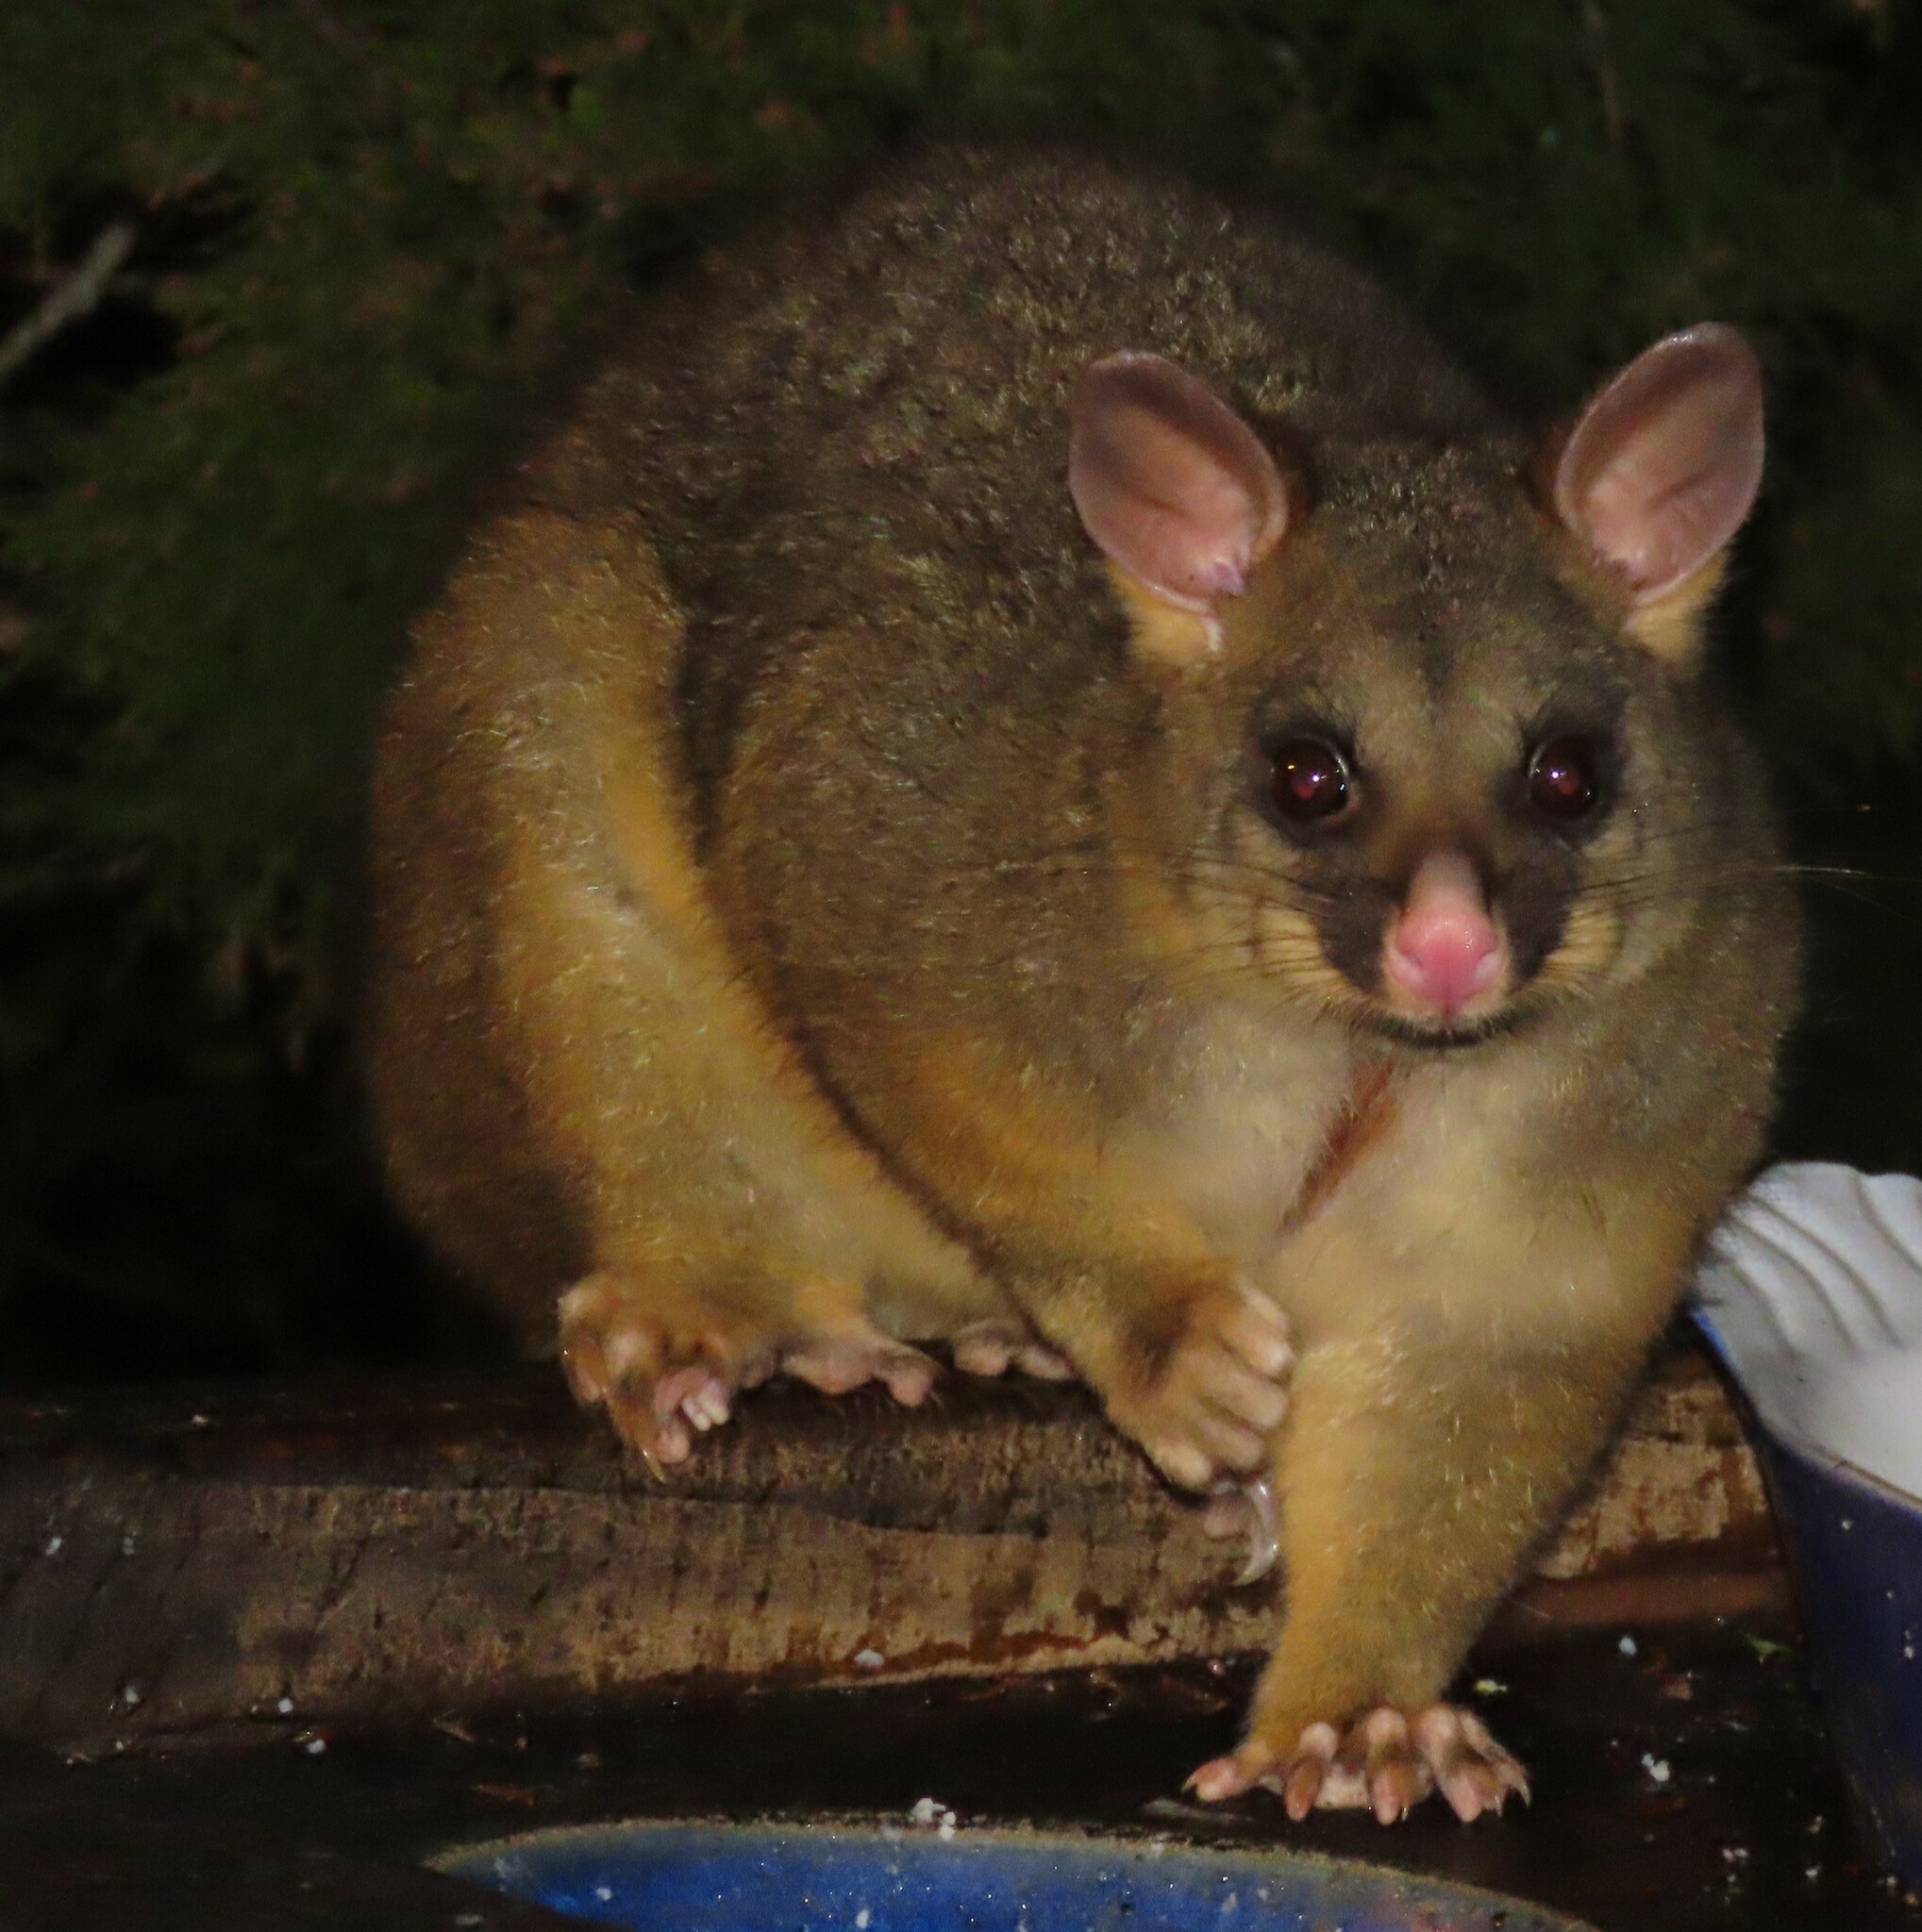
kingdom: Animalia
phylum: Chordata
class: Mammalia
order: Diprotodontia
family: Phalangeridae
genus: Trichosurus
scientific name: Trichosurus vulpecula
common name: Common brushtail
